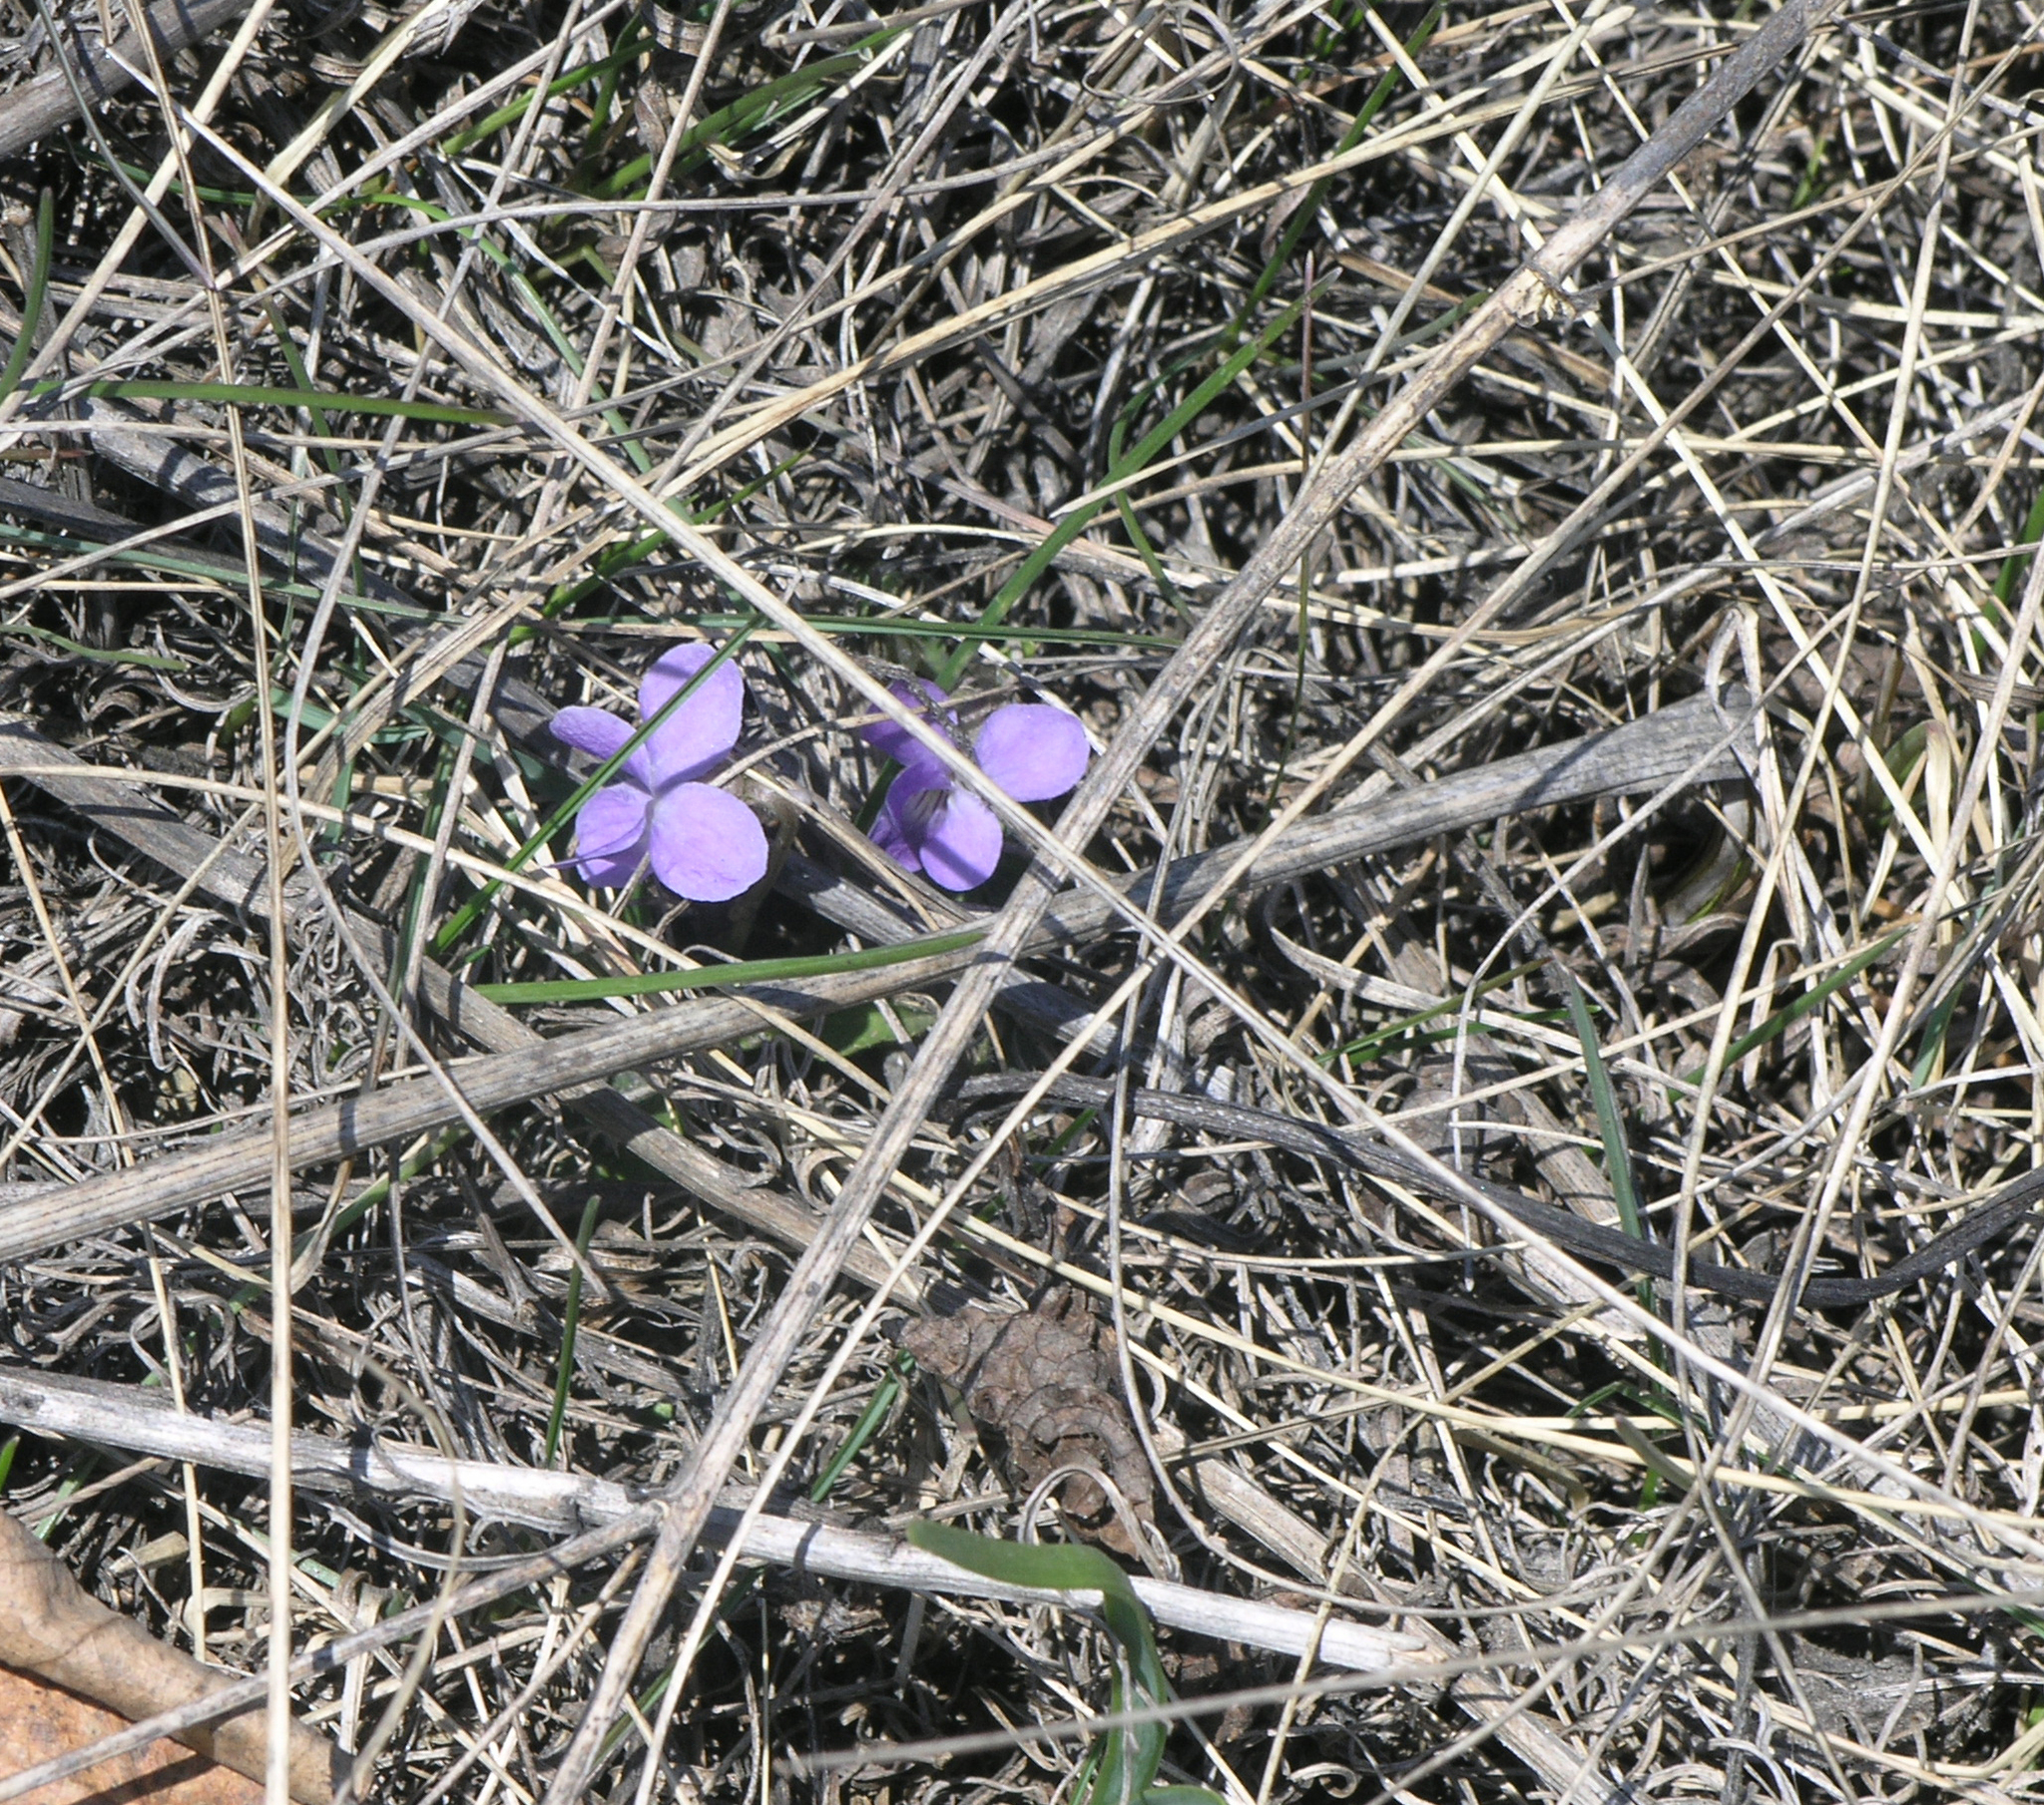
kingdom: Plantae
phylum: Tracheophyta
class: Magnoliopsida
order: Malpighiales
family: Violaceae
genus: Viola
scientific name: Viola hirta
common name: Hairy violet
